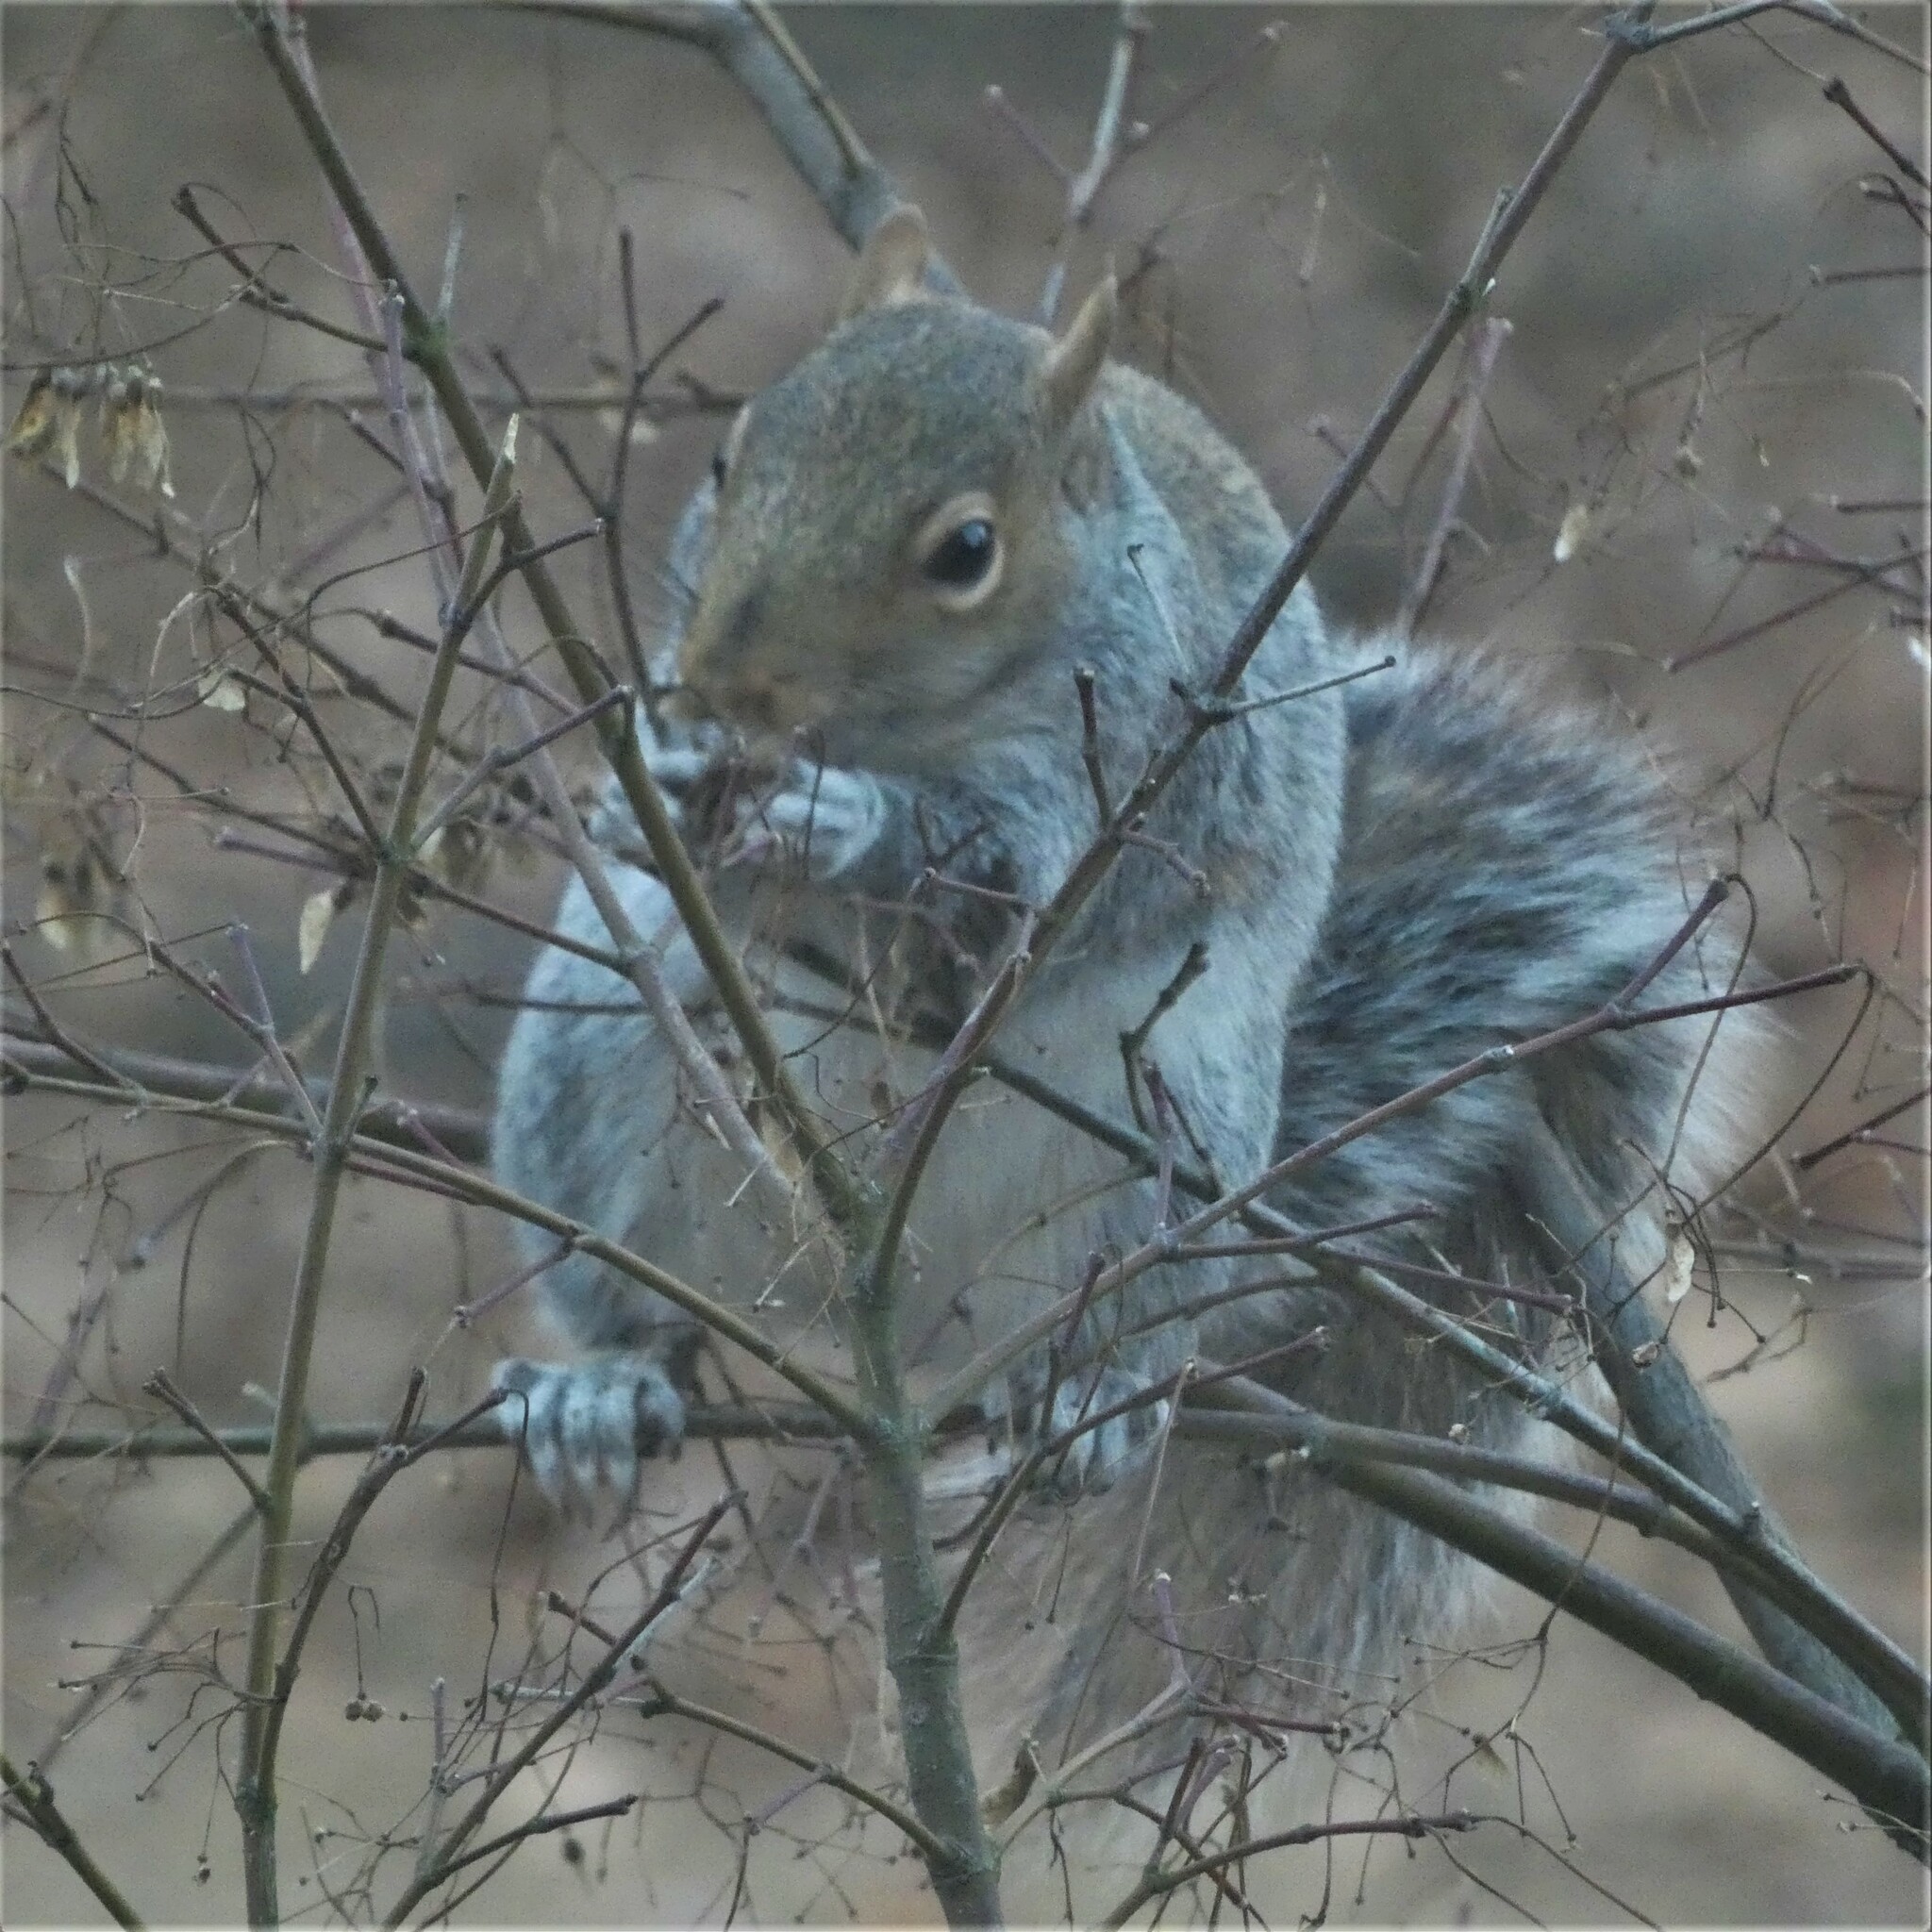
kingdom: Animalia
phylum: Chordata
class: Mammalia
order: Rodentia
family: Sciuridae
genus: Sciurus
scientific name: Sciurus carolinensis
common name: Eastern gray squirrel
